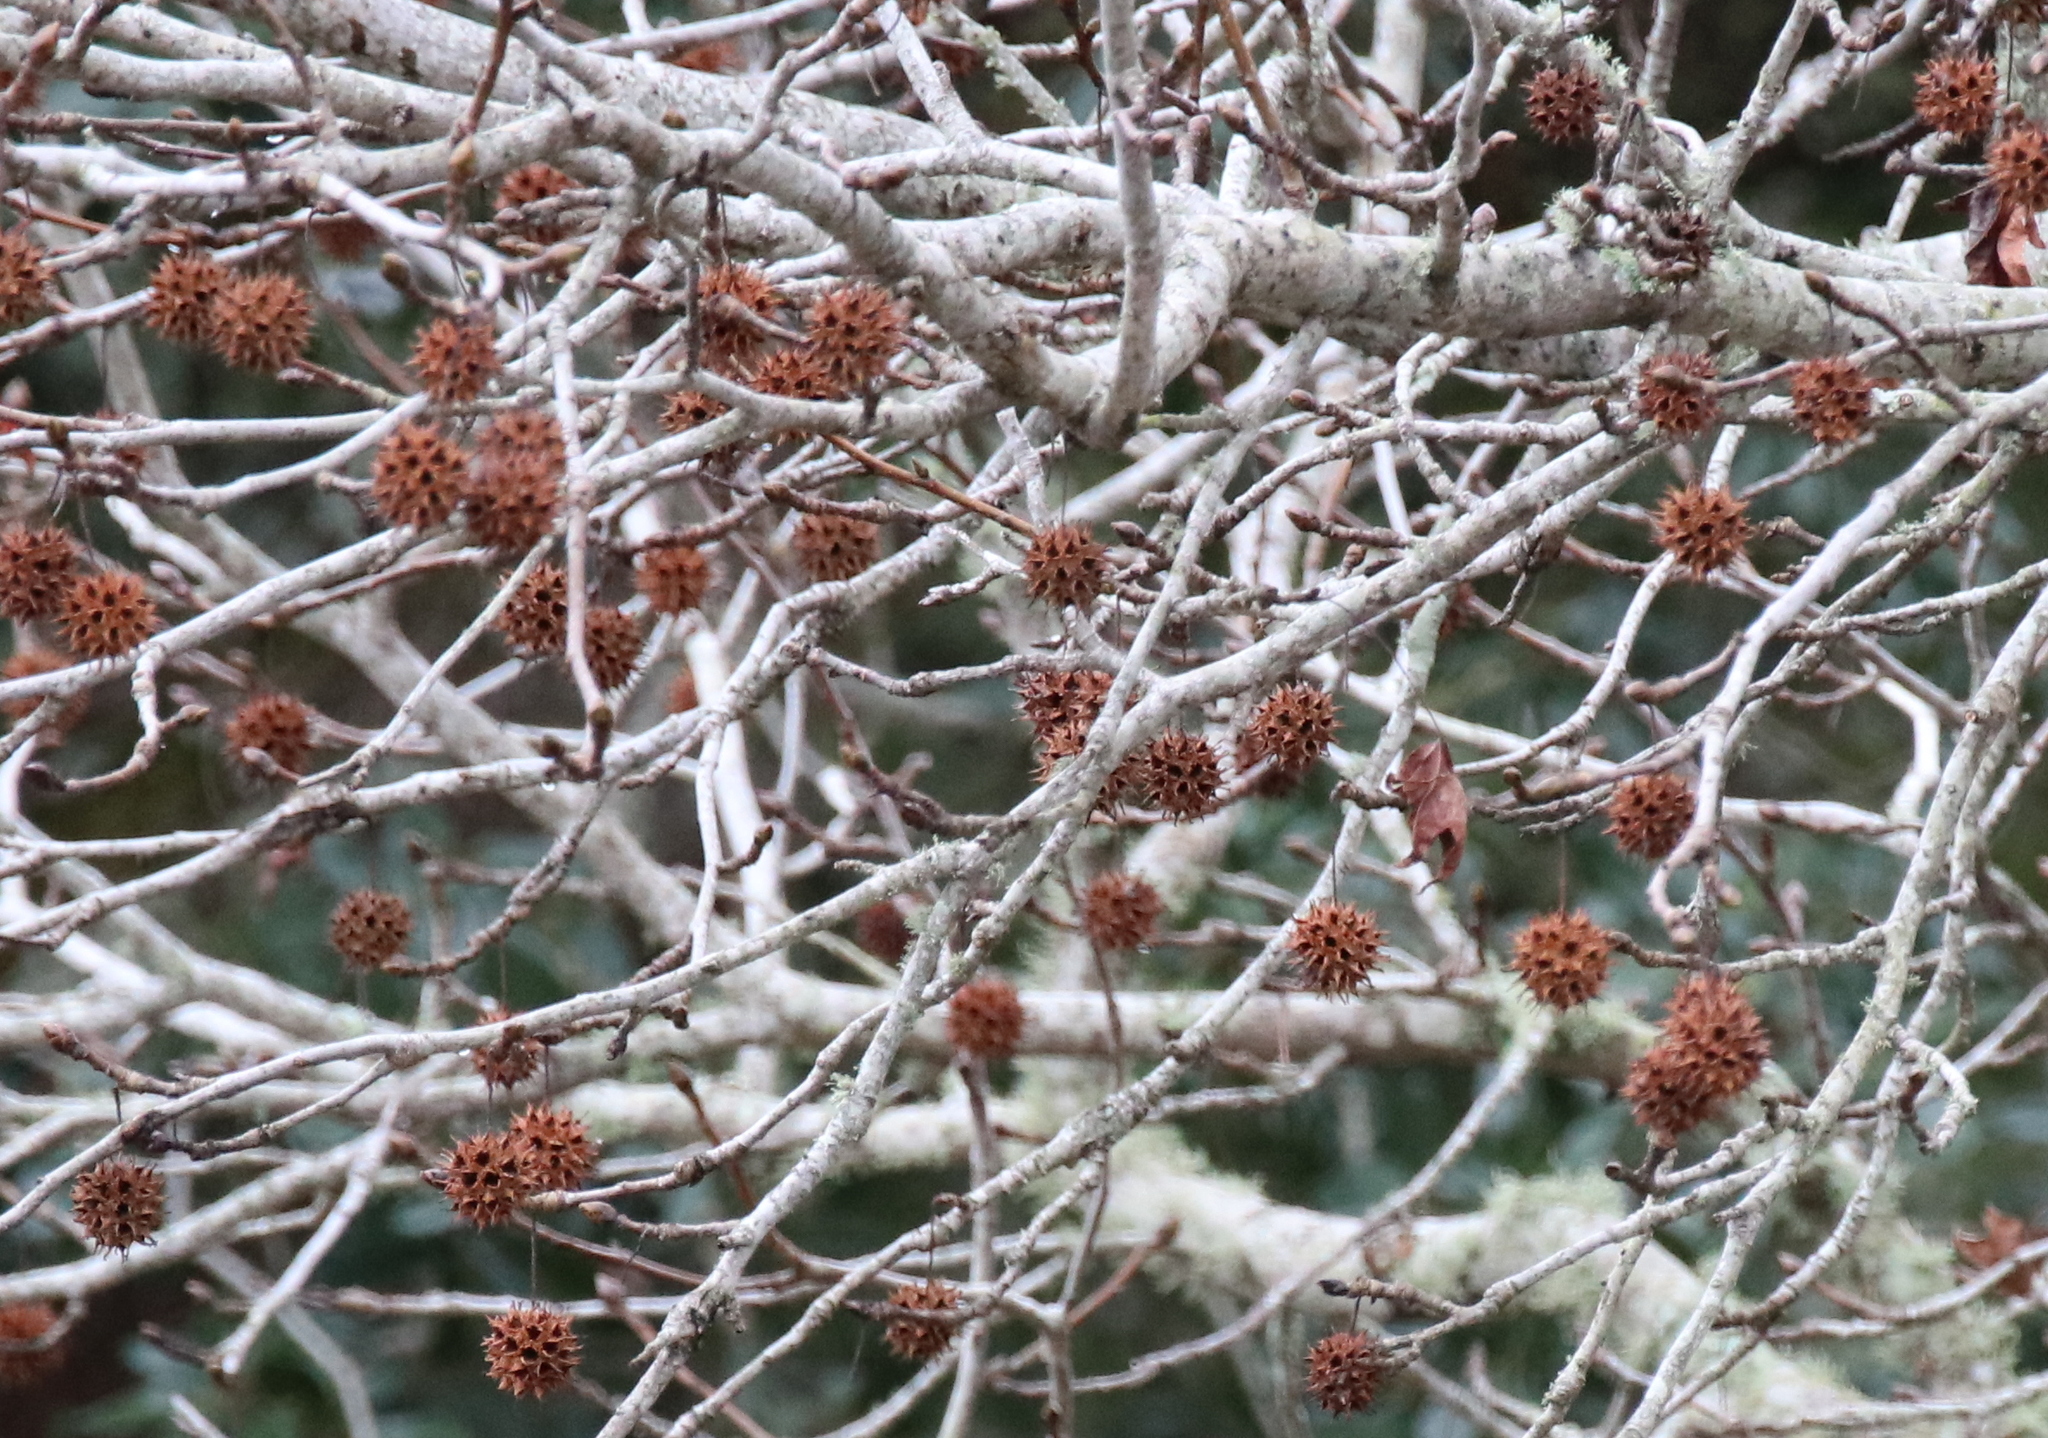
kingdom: Plantae
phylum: Tracheophyta
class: Magnoliopsida
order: Saxifragales
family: Altingiaceae
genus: Liquidambar
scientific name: Liquidambar styraciflua
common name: Sweet gum
